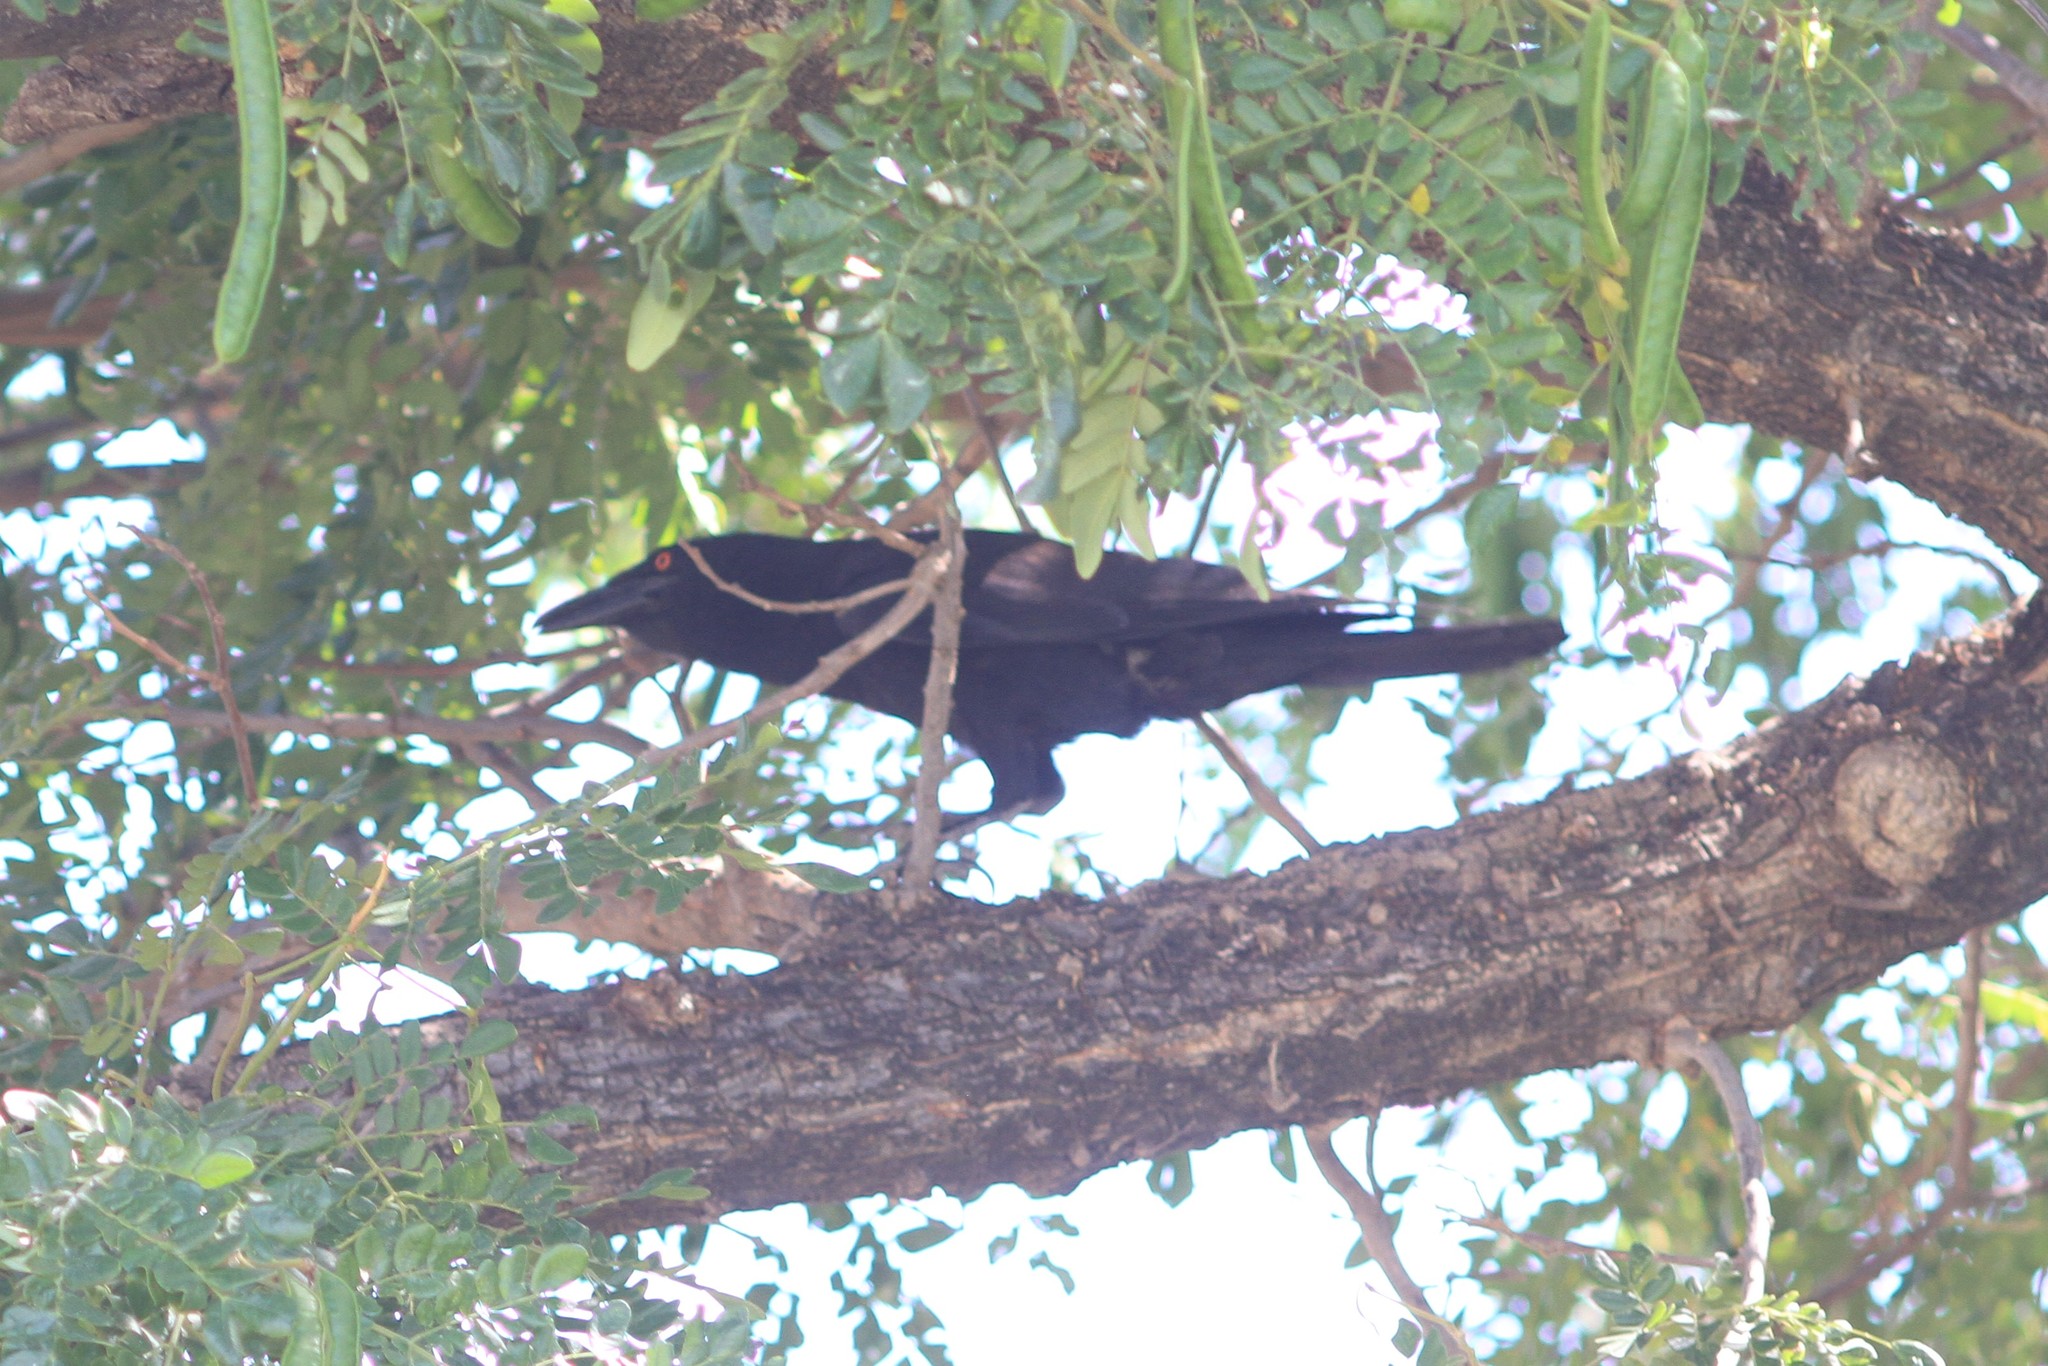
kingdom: Animalia
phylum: Chordata
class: Aves
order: Passeriformes
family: Corvidae
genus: Corvus
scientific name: Corvus leucognaphalus
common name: White-necked crow
